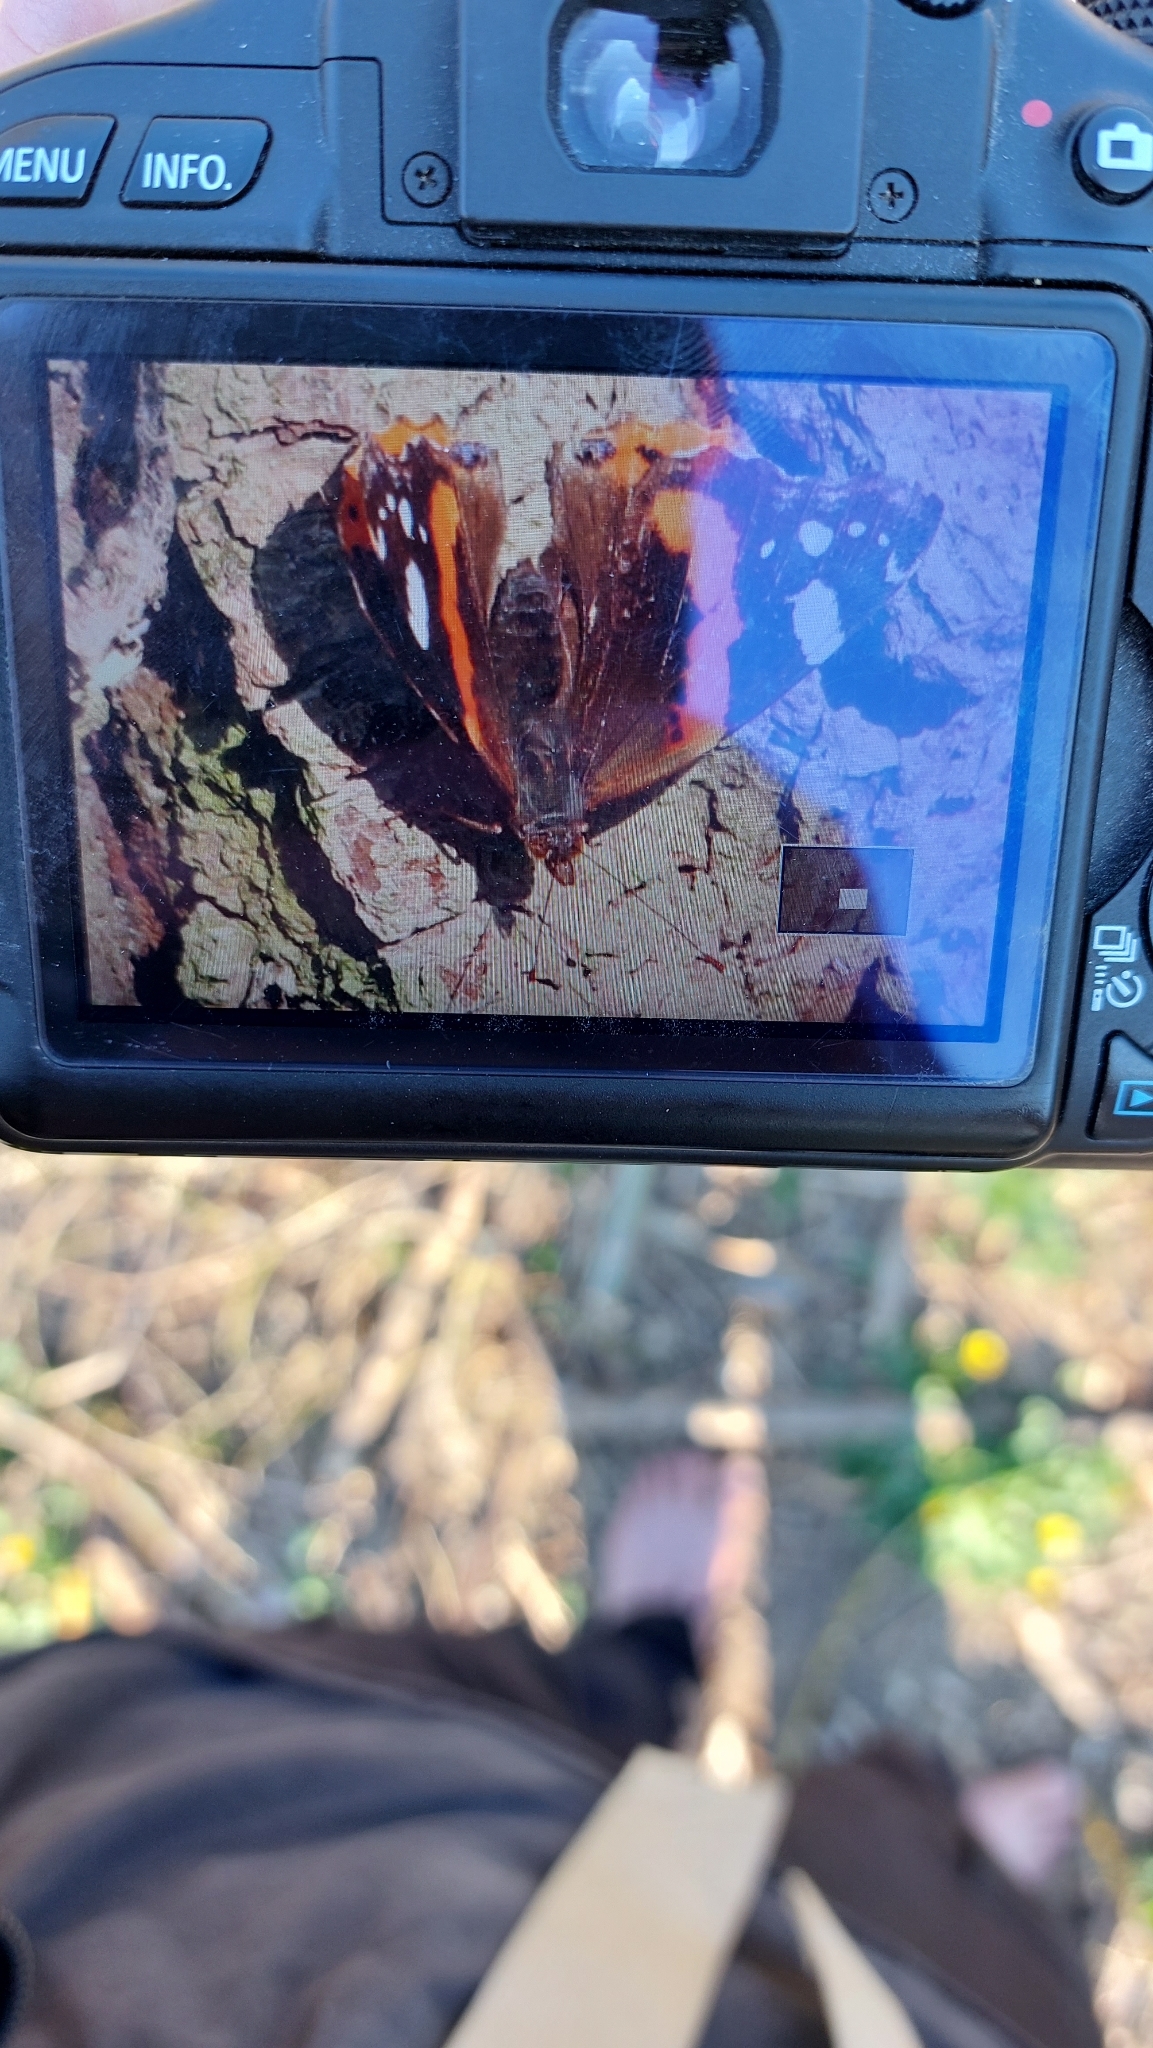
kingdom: Animalia
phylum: Arthropoda
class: Insecta
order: Lepidoptera
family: Nymphalidae
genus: Vanessa
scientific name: Vanessa atalanta
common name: Red admiral
